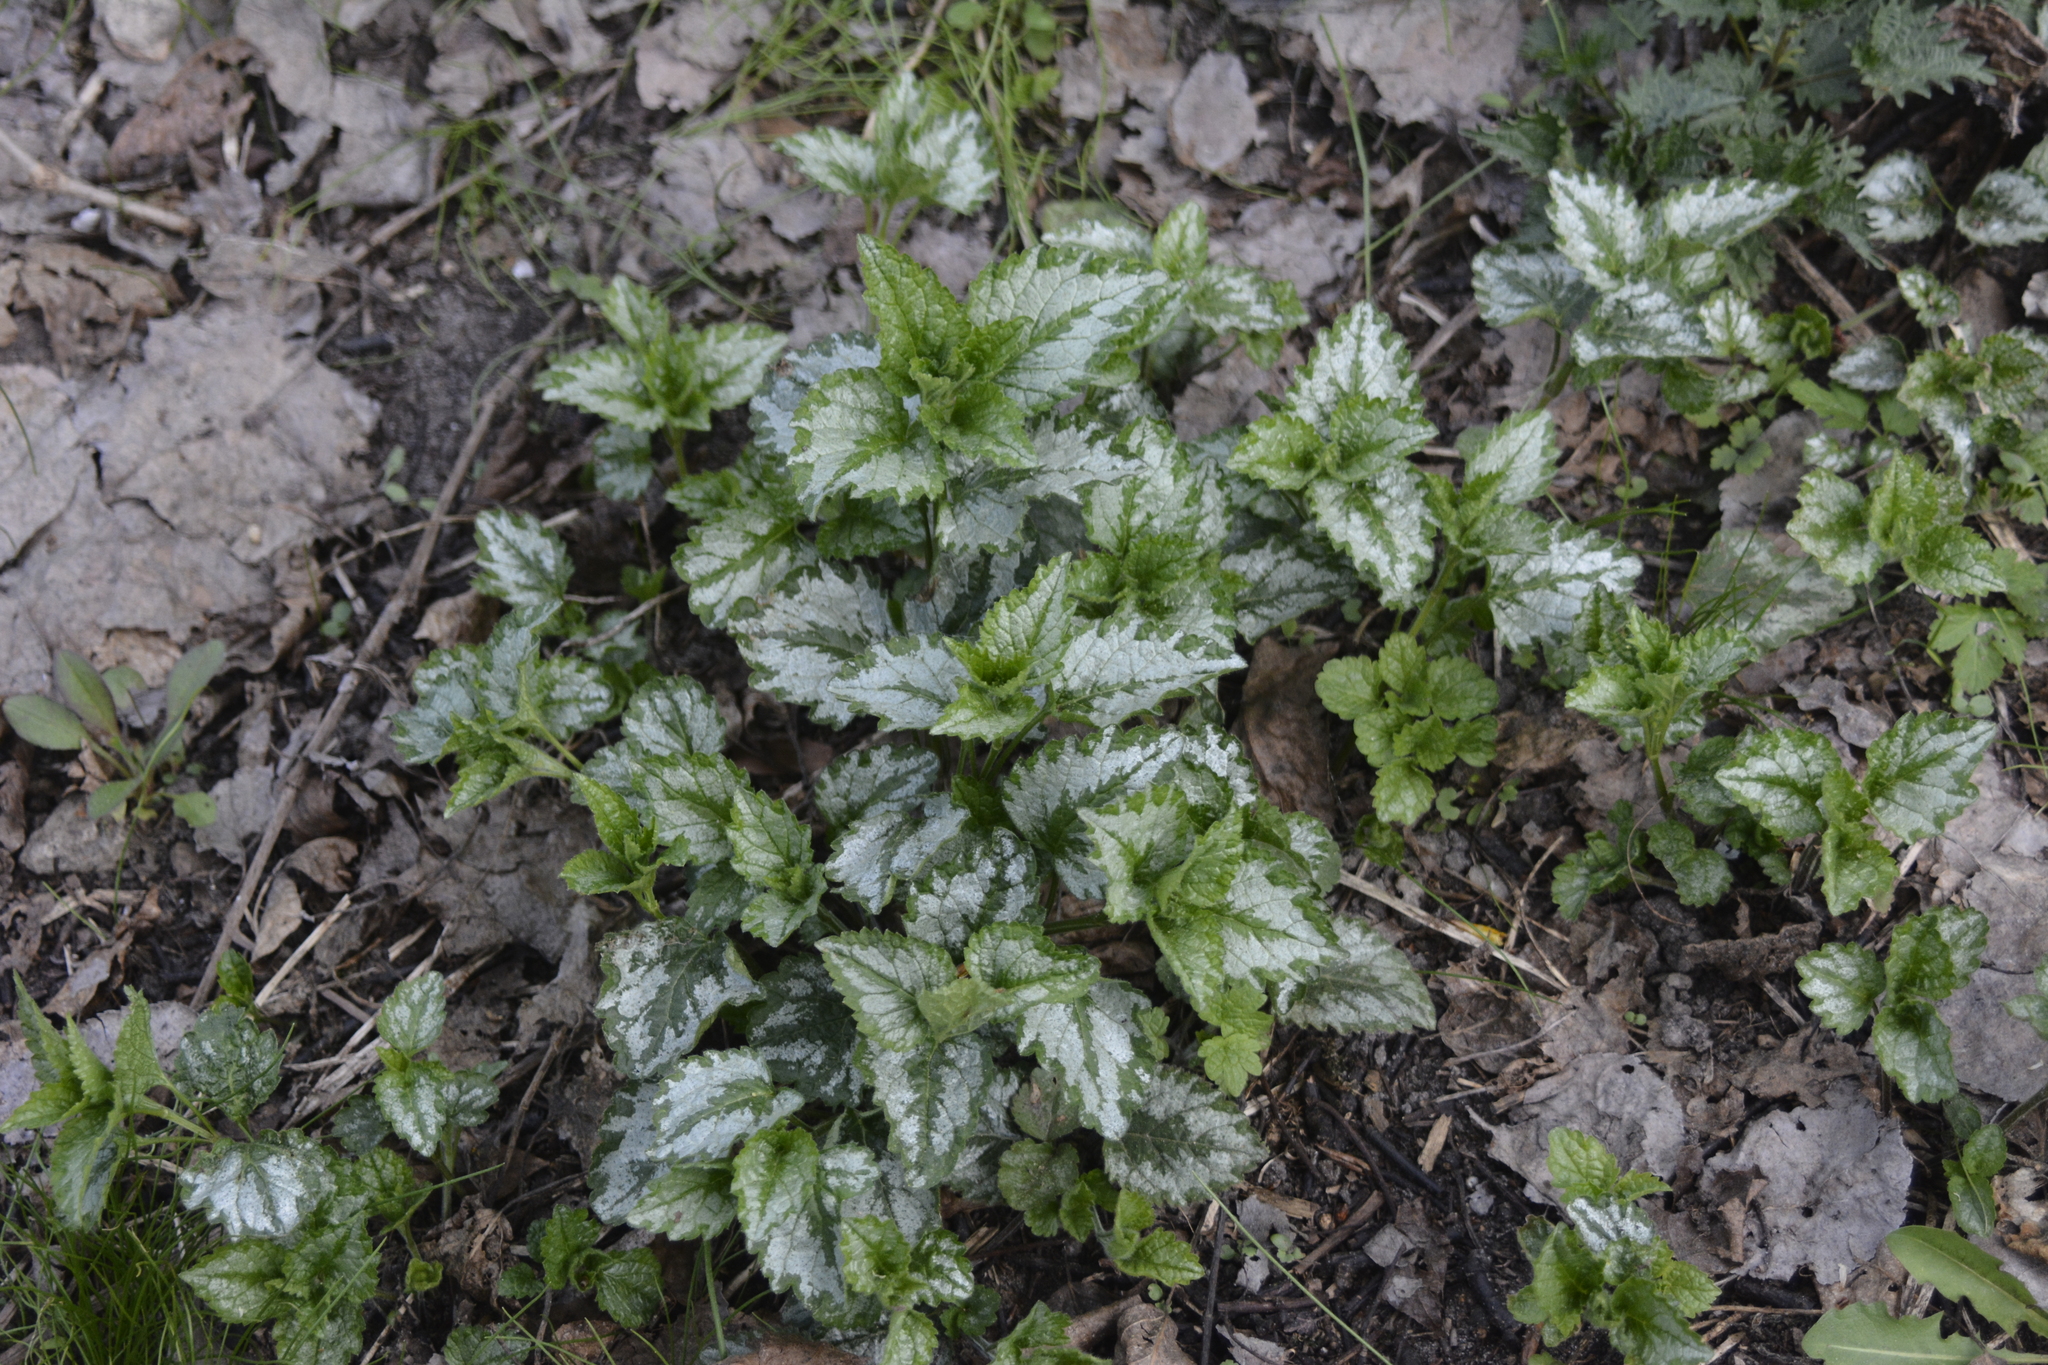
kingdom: Plantae
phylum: Tracheophyta
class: Magnoliopsida
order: Lamiales
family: Lamiaceae
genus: Lamium
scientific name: Lamium galeobdolon
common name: Yellow archangel
